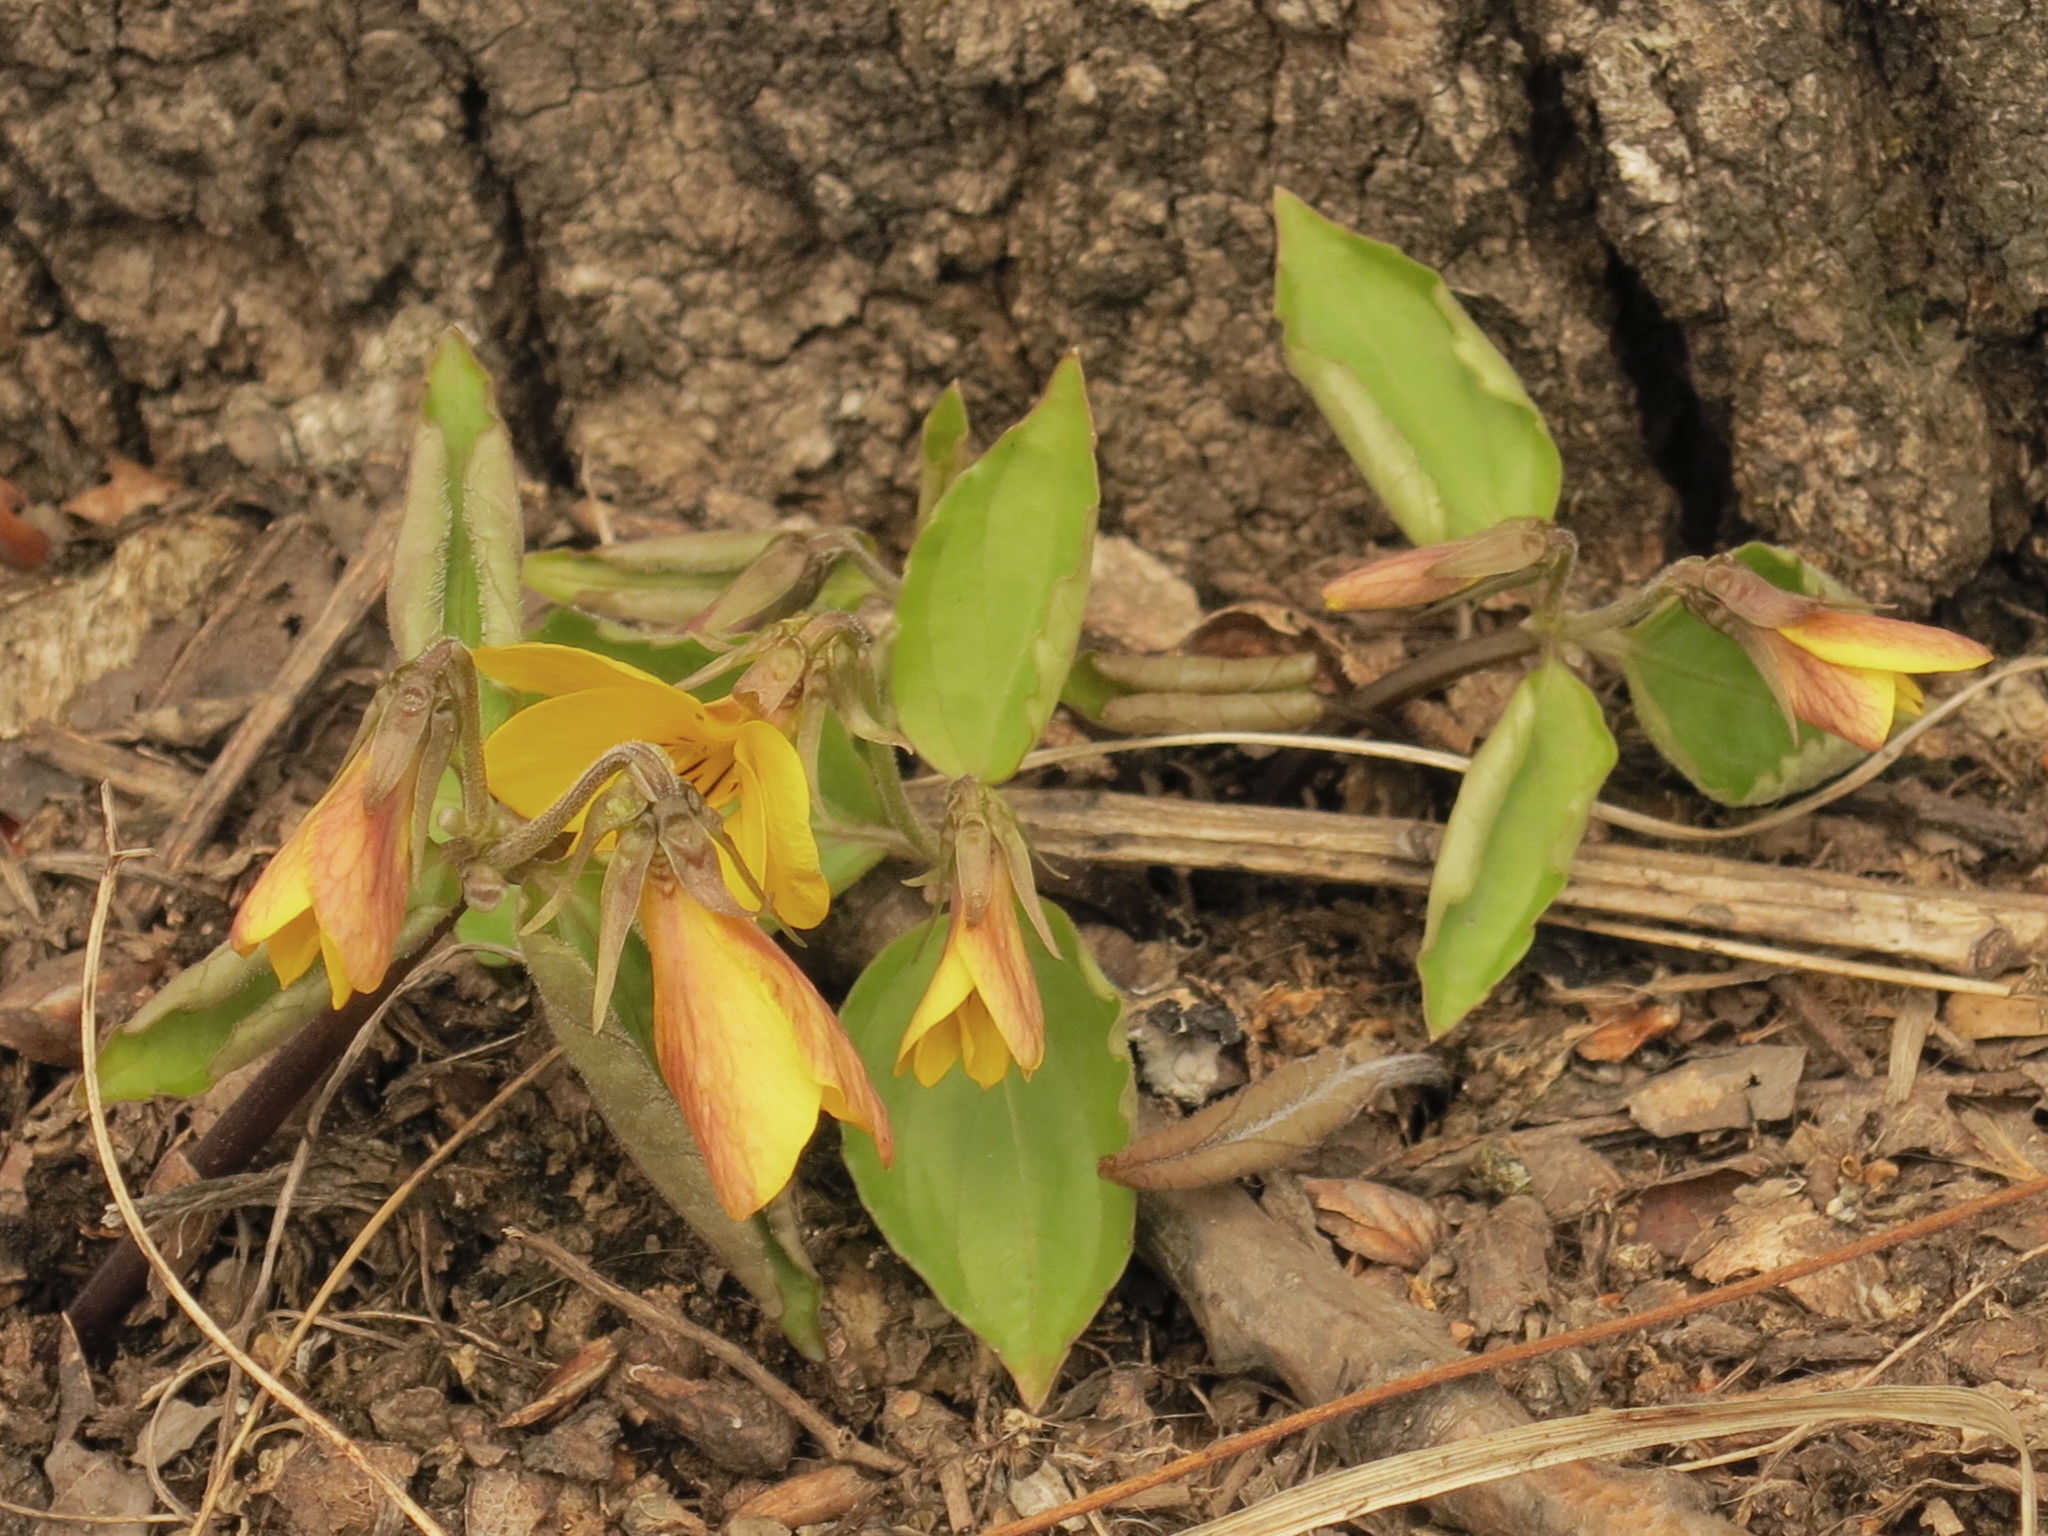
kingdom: Plantae
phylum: Tracheophyta
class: Magnoliopsida
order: Malpighiales
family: Violaceae
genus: Viola
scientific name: Viola orientalis
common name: Golden violet
